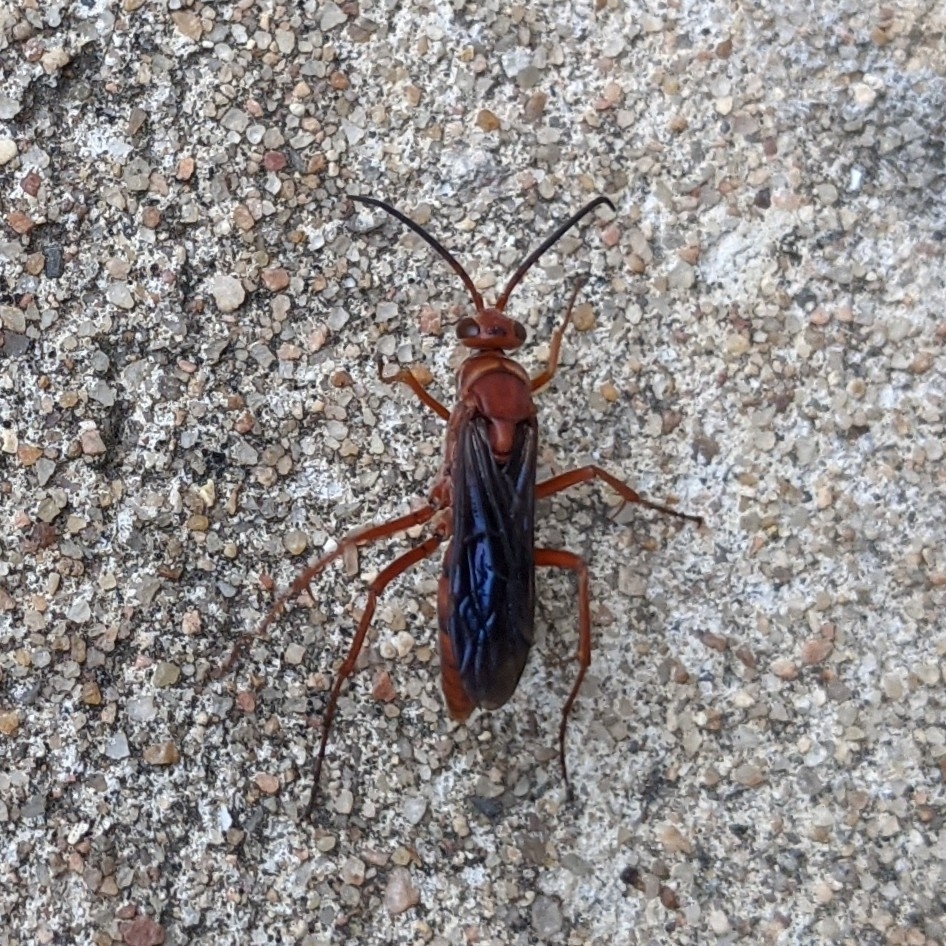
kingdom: Animalia
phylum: Arthropoda
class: Insecta
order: Hymenoptera
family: Pompilidae
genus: Tachypompilus
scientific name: Tachypompilus ferrugineus
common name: Rusty spider wasp
